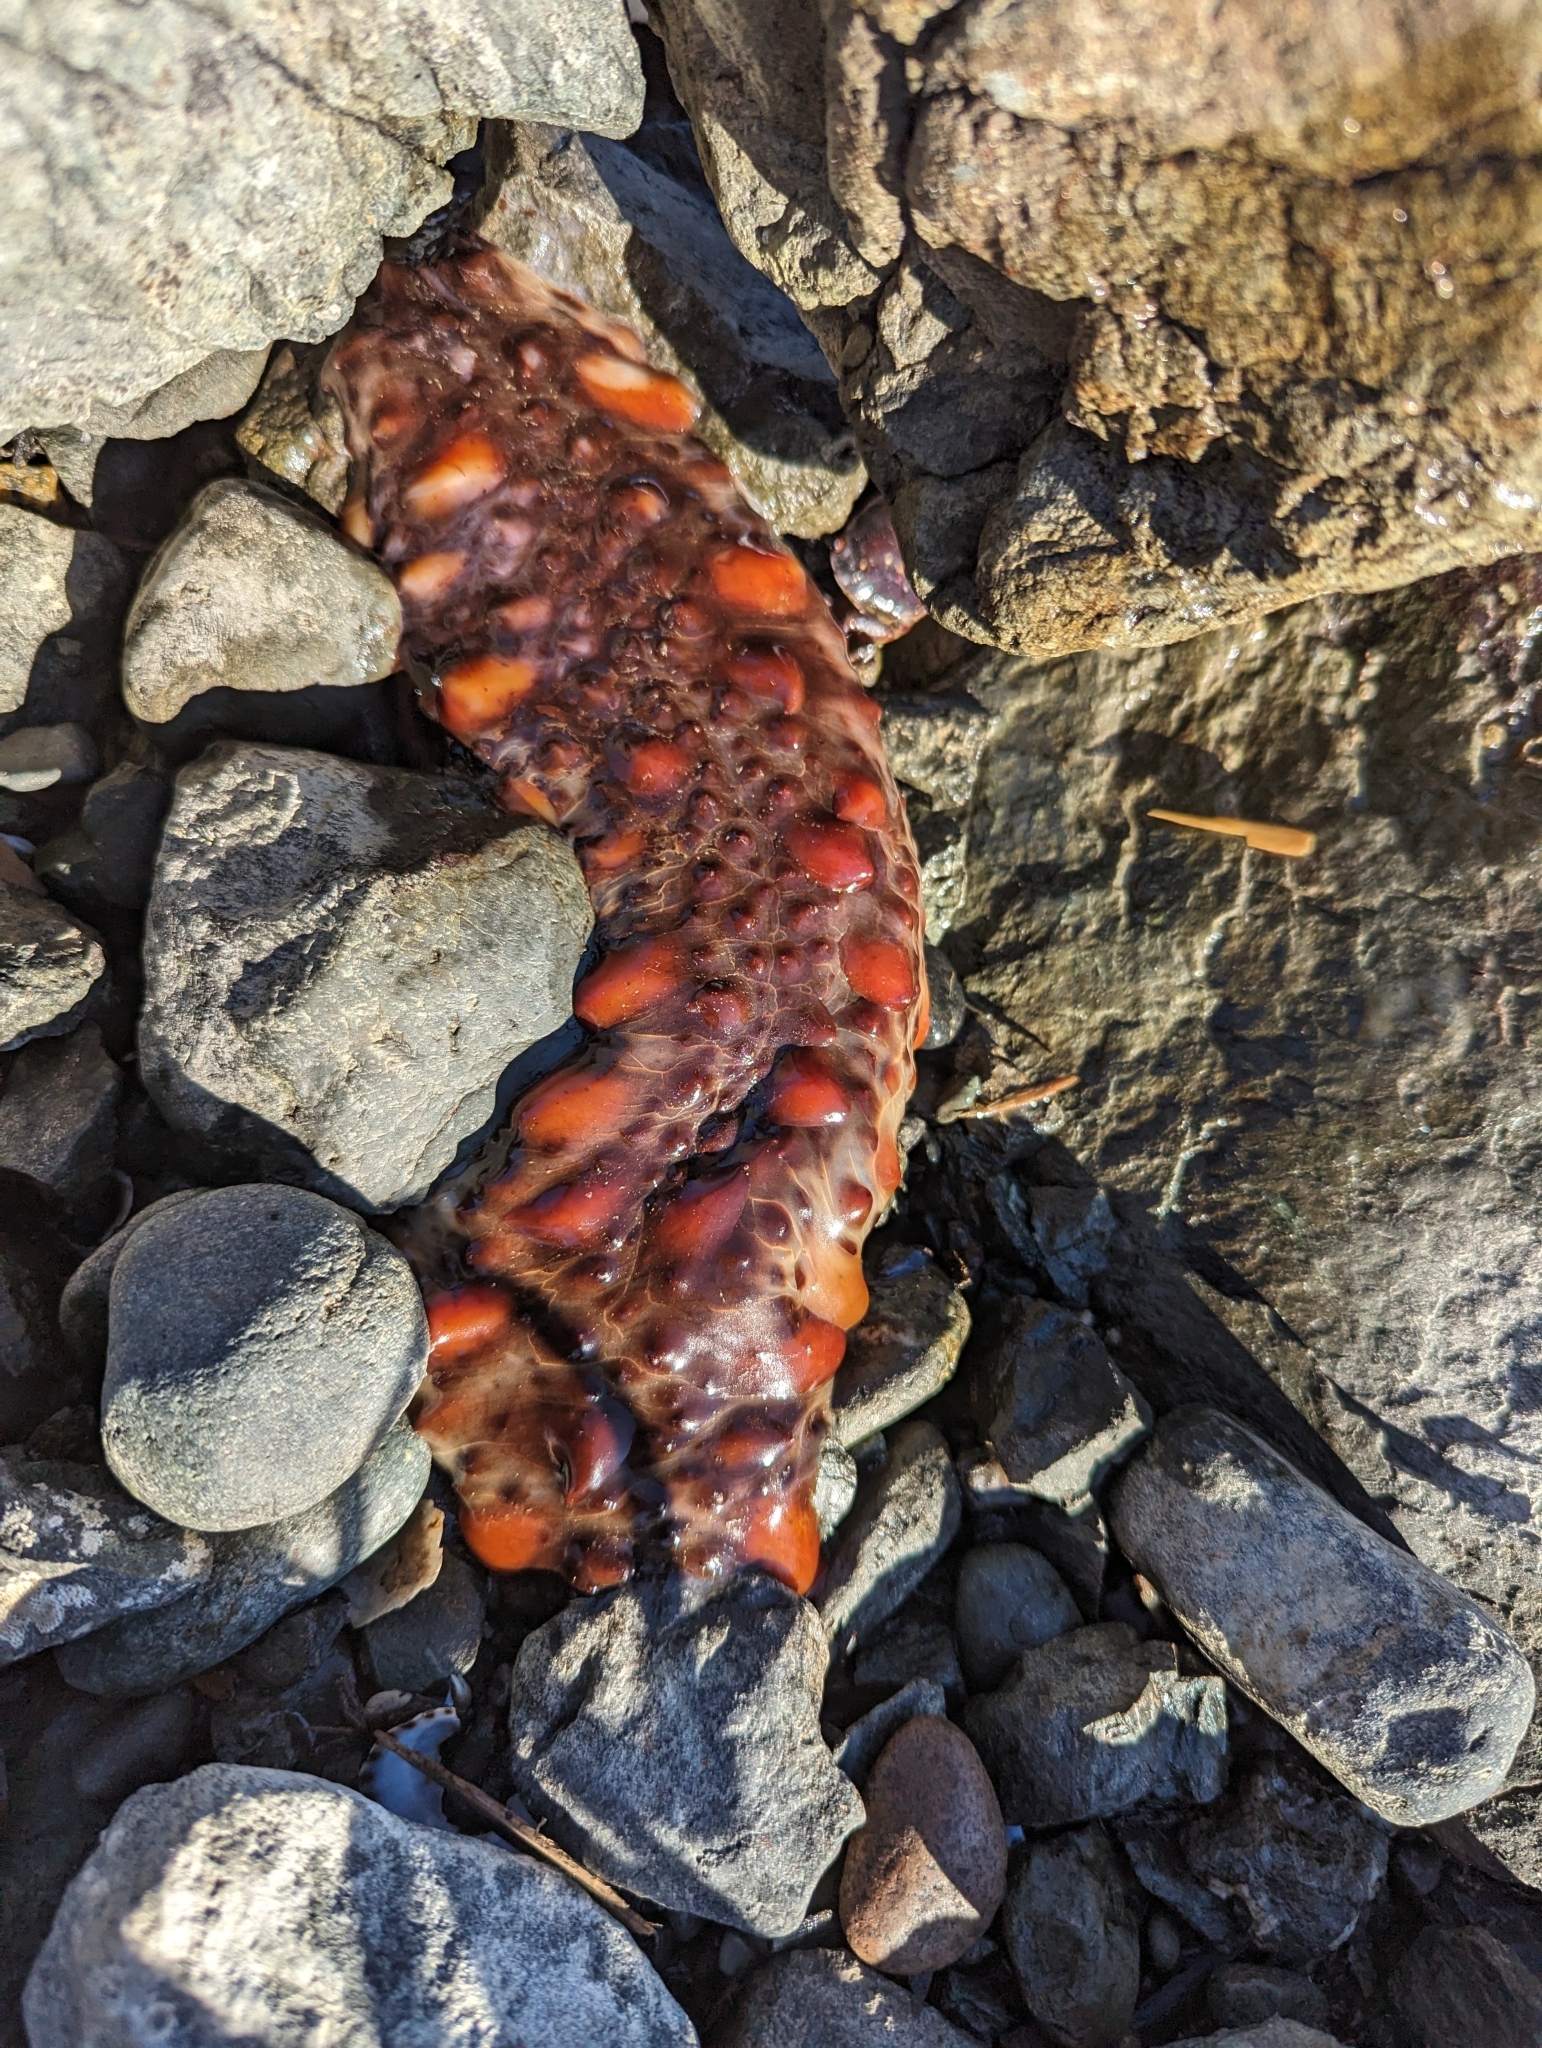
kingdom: Animalia
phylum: Echinodermata
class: Holothuroidea
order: Synallactida
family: Stichopodidae
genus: Apostichopus
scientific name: Apostichopus californicus
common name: California sea cucumber
